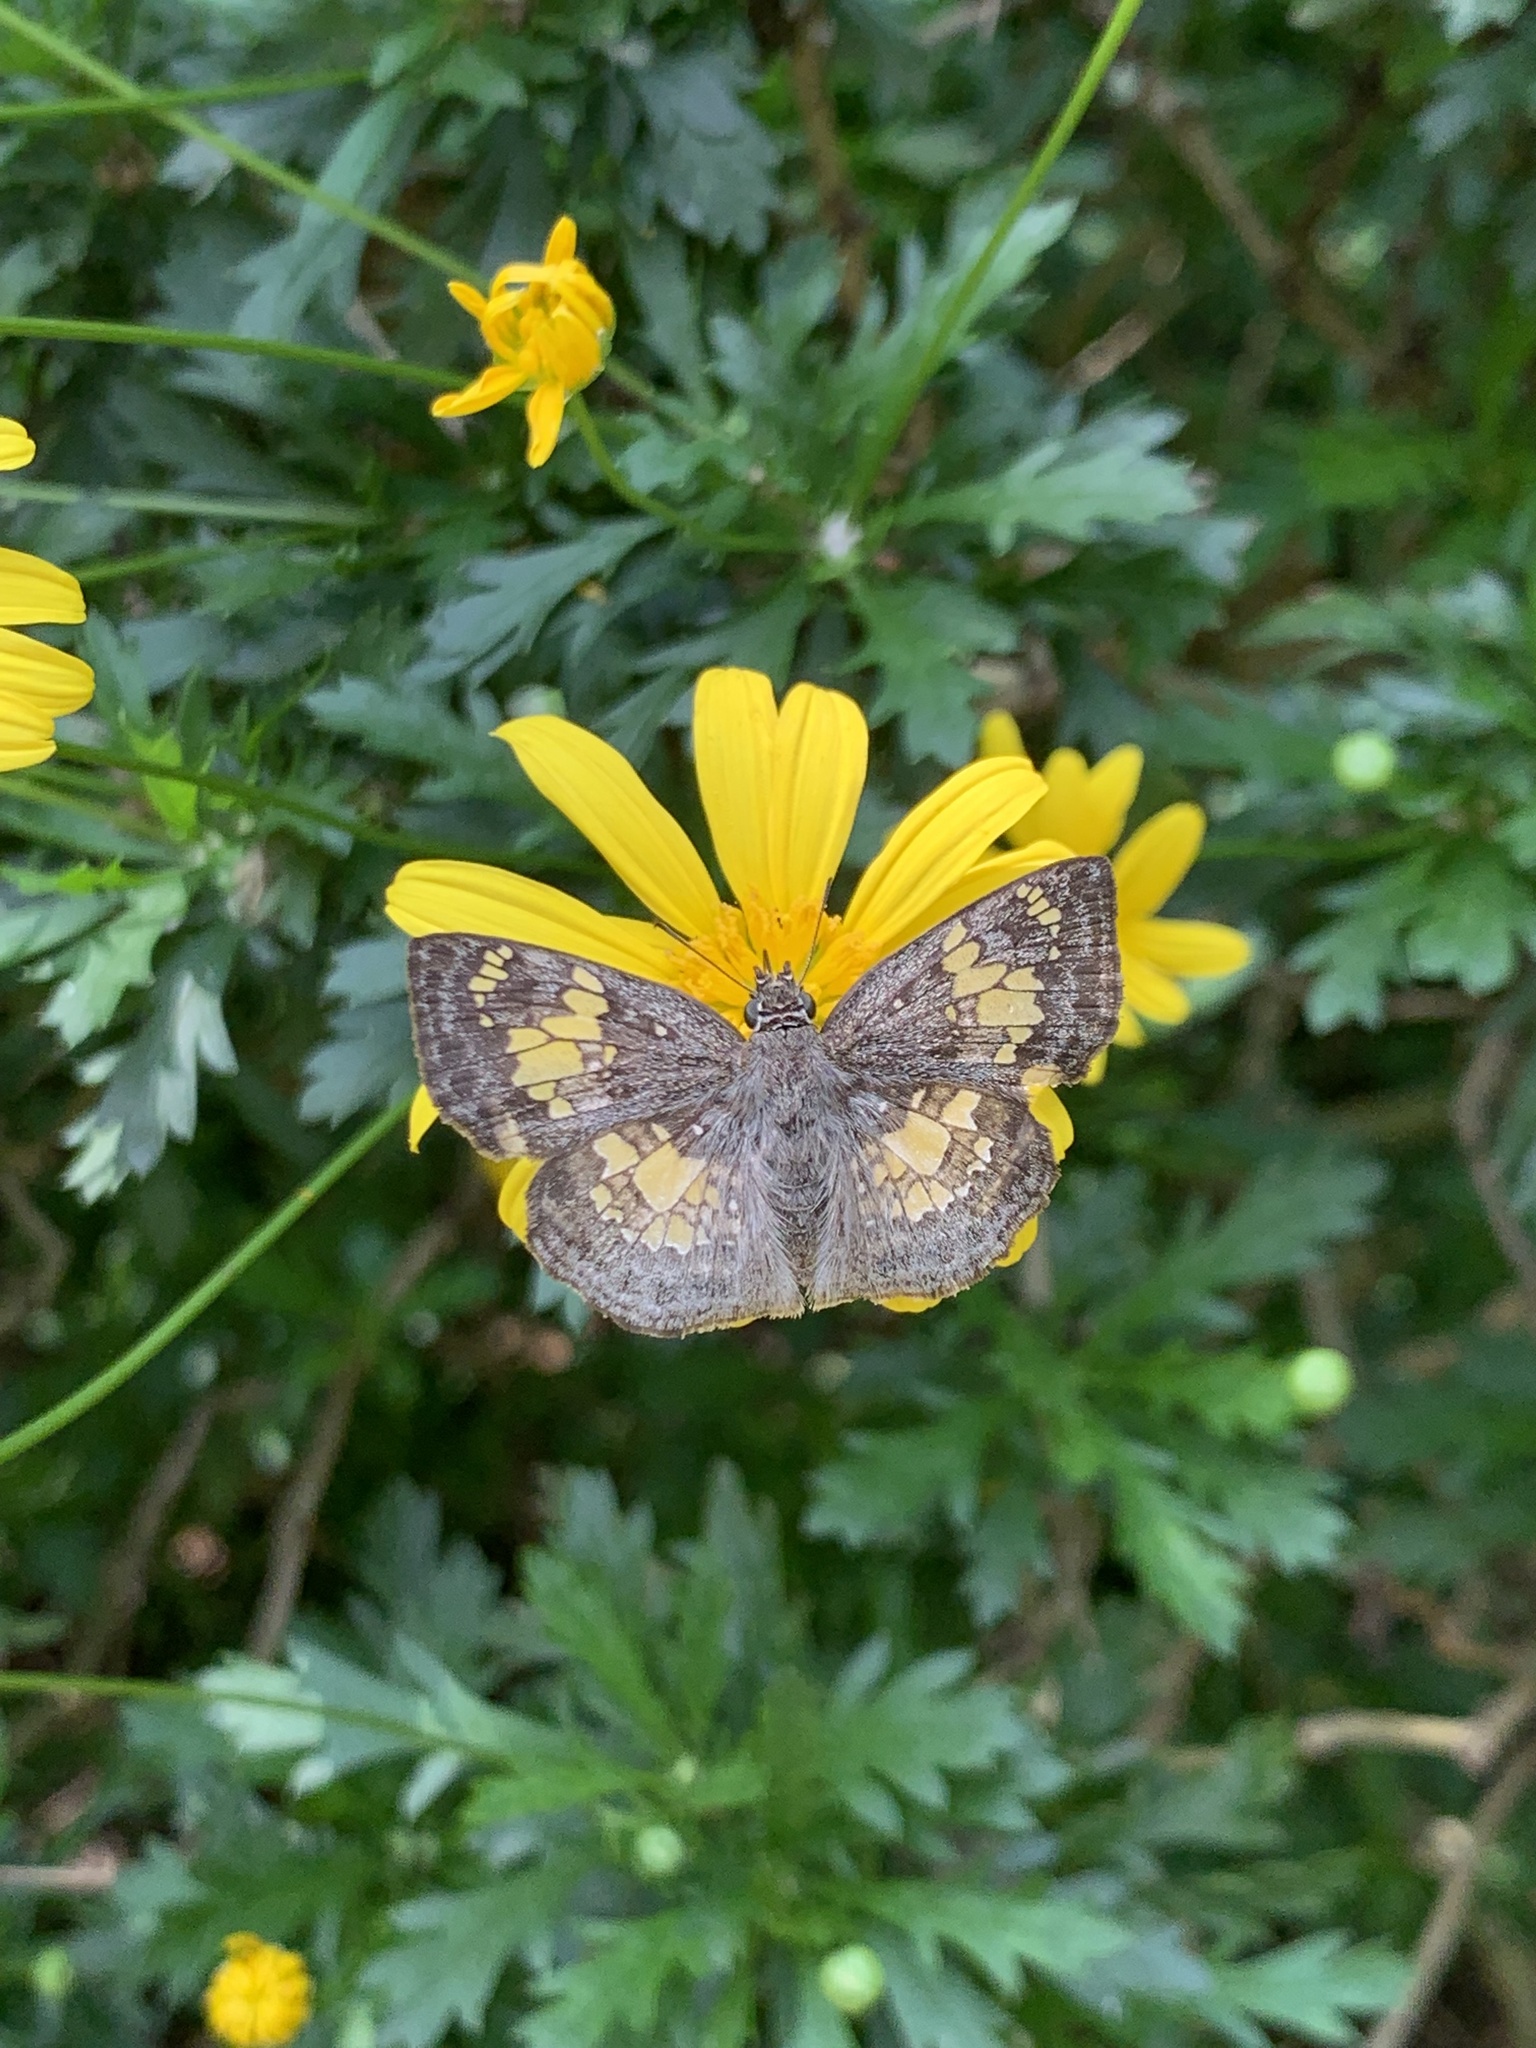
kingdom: Animalia
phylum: Arthropoda
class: Insecta
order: Lepidoptera
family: Hesperiidae
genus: Xenophanes
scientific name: Xenophanes tryxus
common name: Glassy-winged skipper
